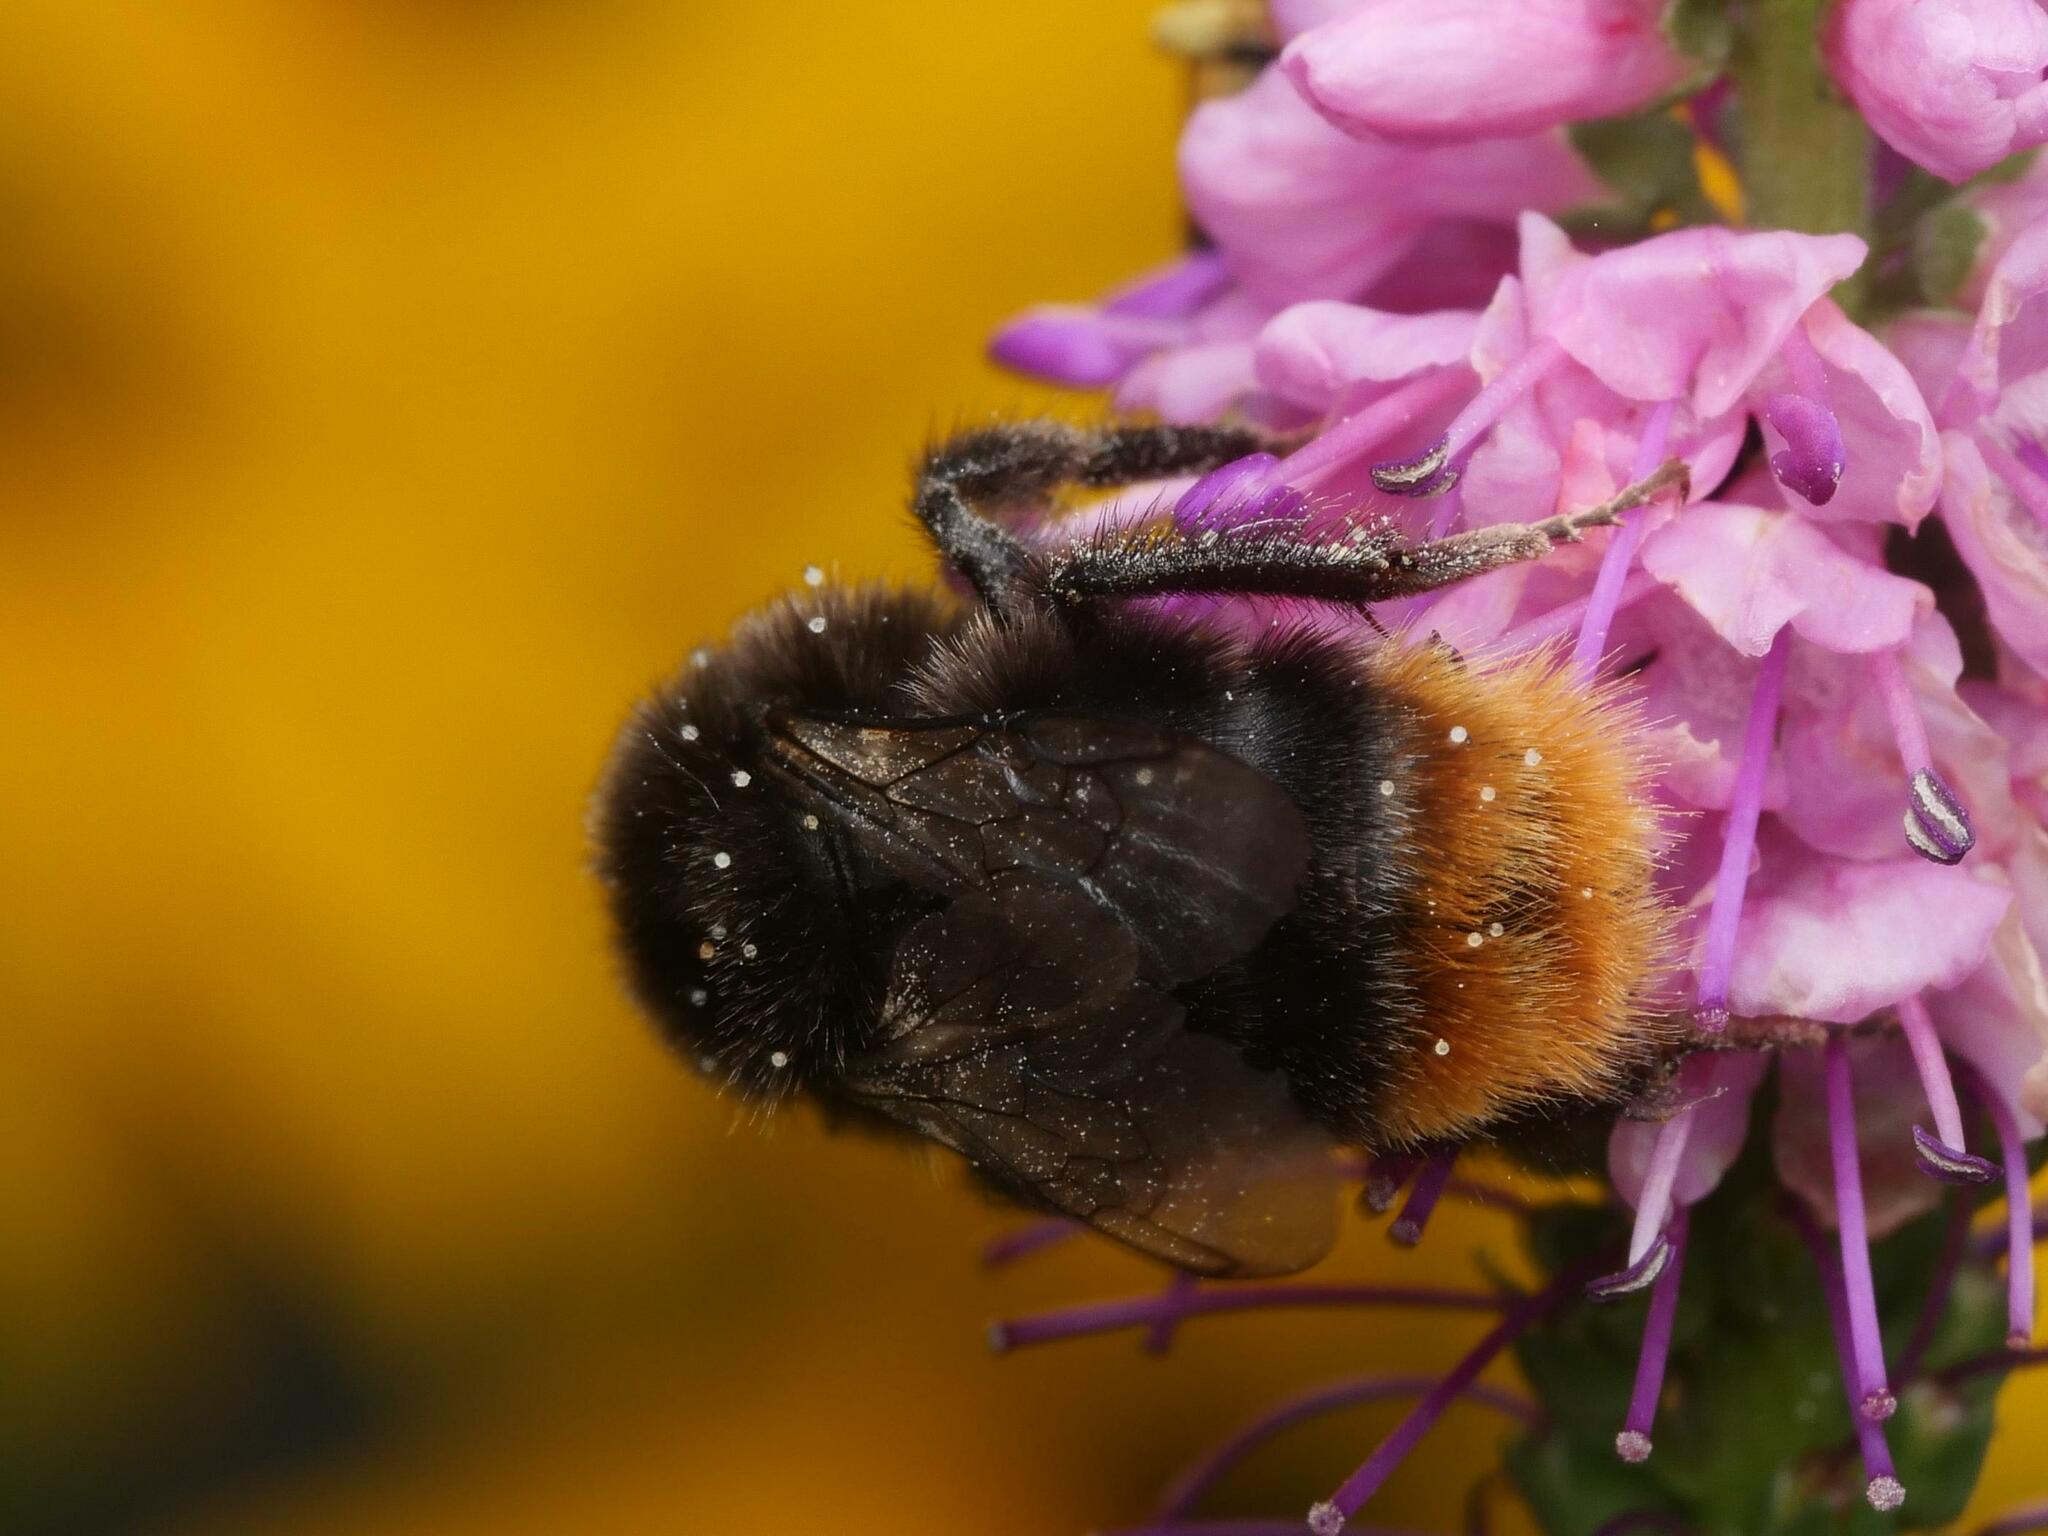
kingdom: Animalia
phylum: Arthropoda
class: Insecta
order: Hymenoptera
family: Apidae
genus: Bombus
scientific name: Bombus lapidarius
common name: Large red-tailed humble-bee
